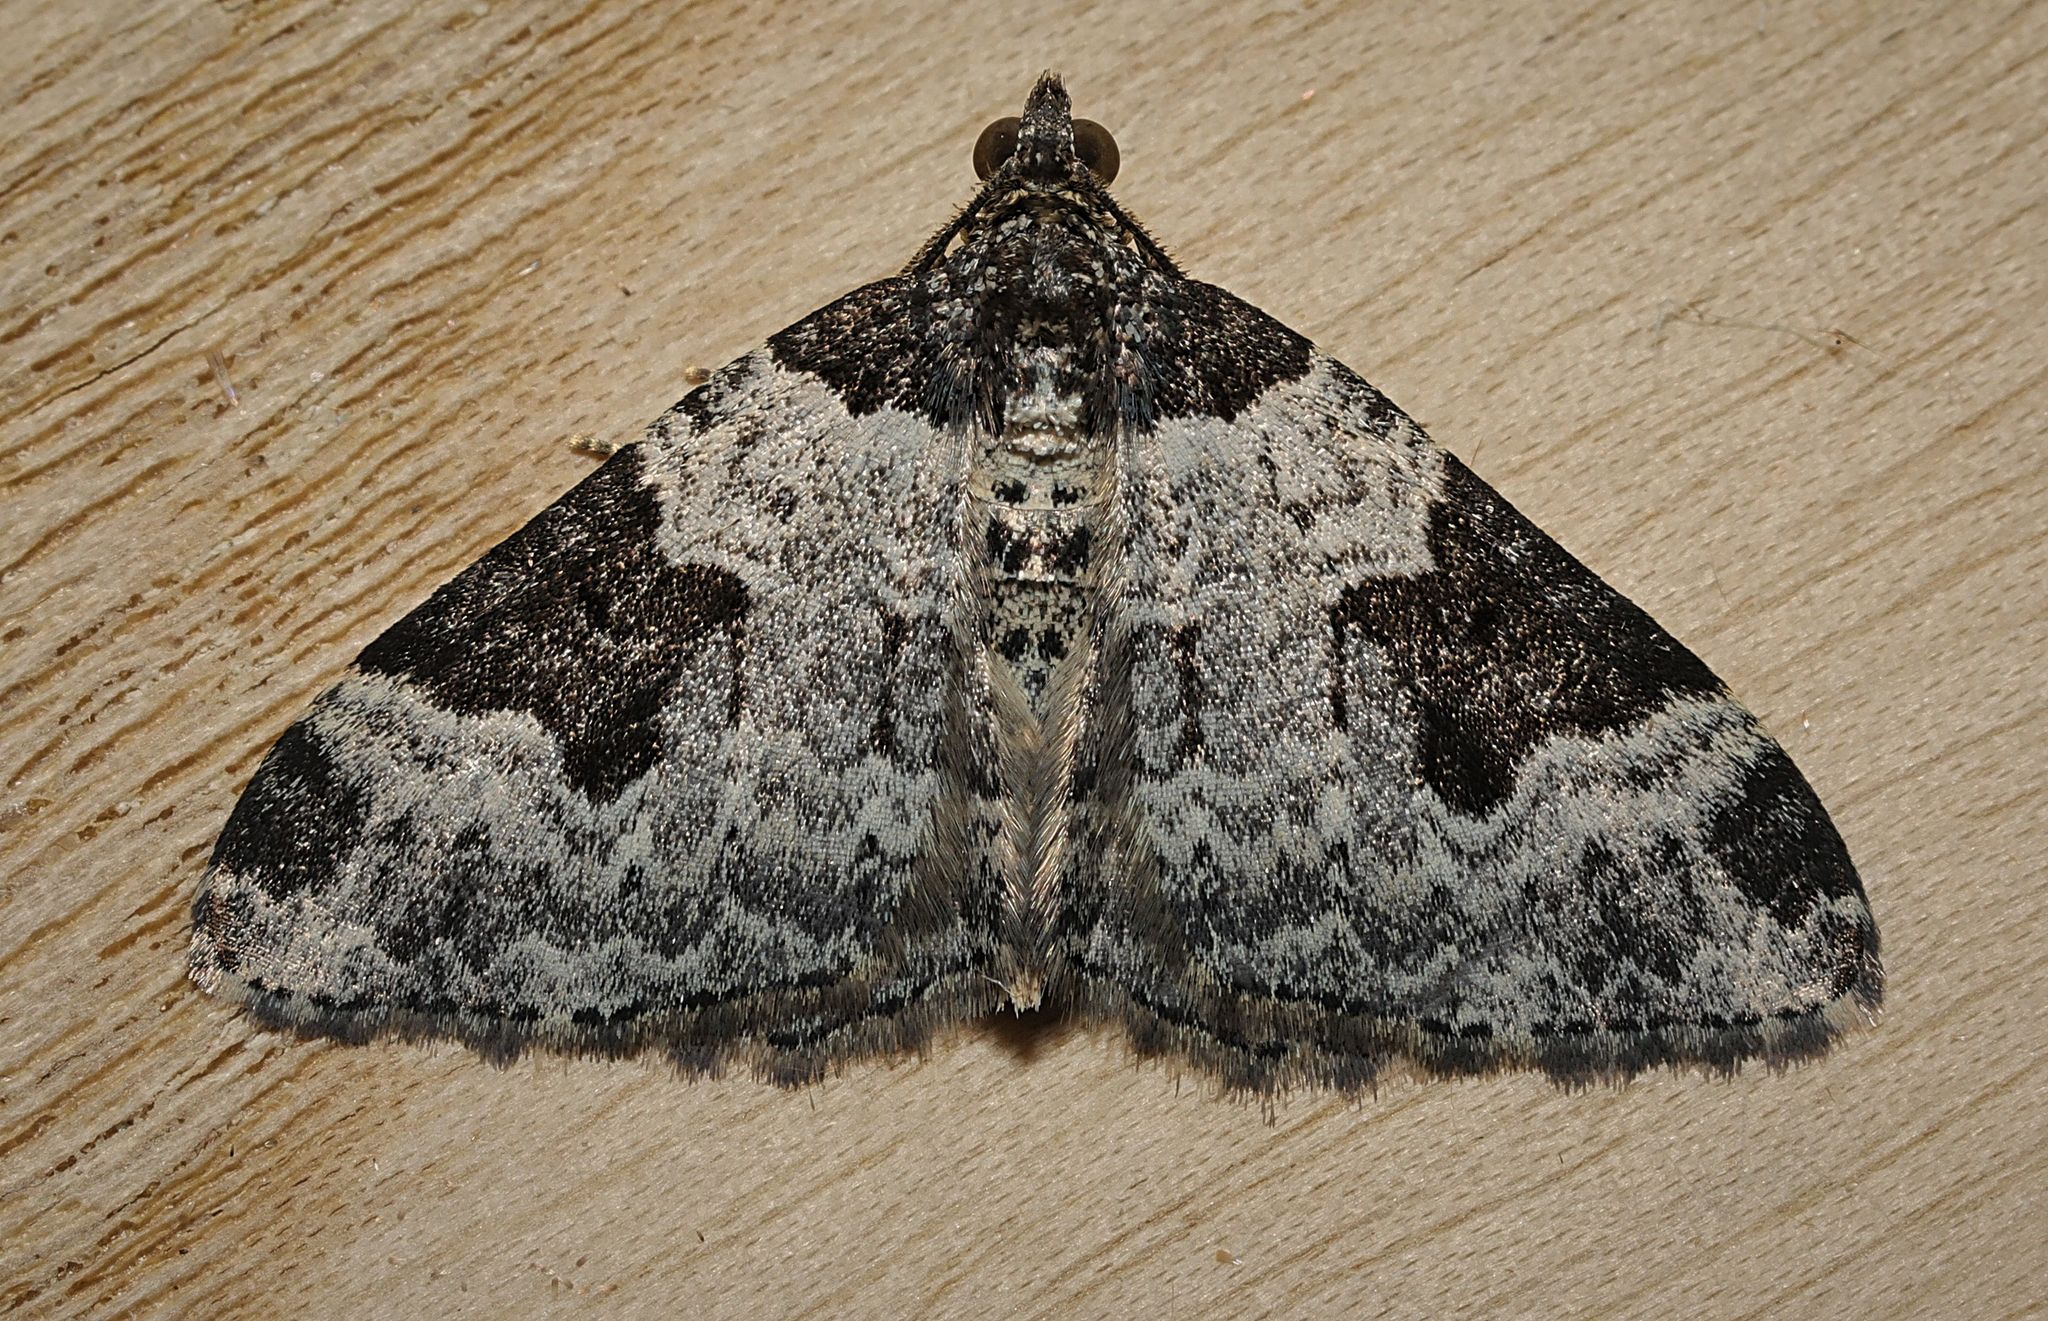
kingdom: Animalia
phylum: Arthropoda
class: Insecta
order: Lepidoptera
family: Geometridae
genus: Xanthorhoe
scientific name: Xanthorhoe fluctuata
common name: Garden carpet
